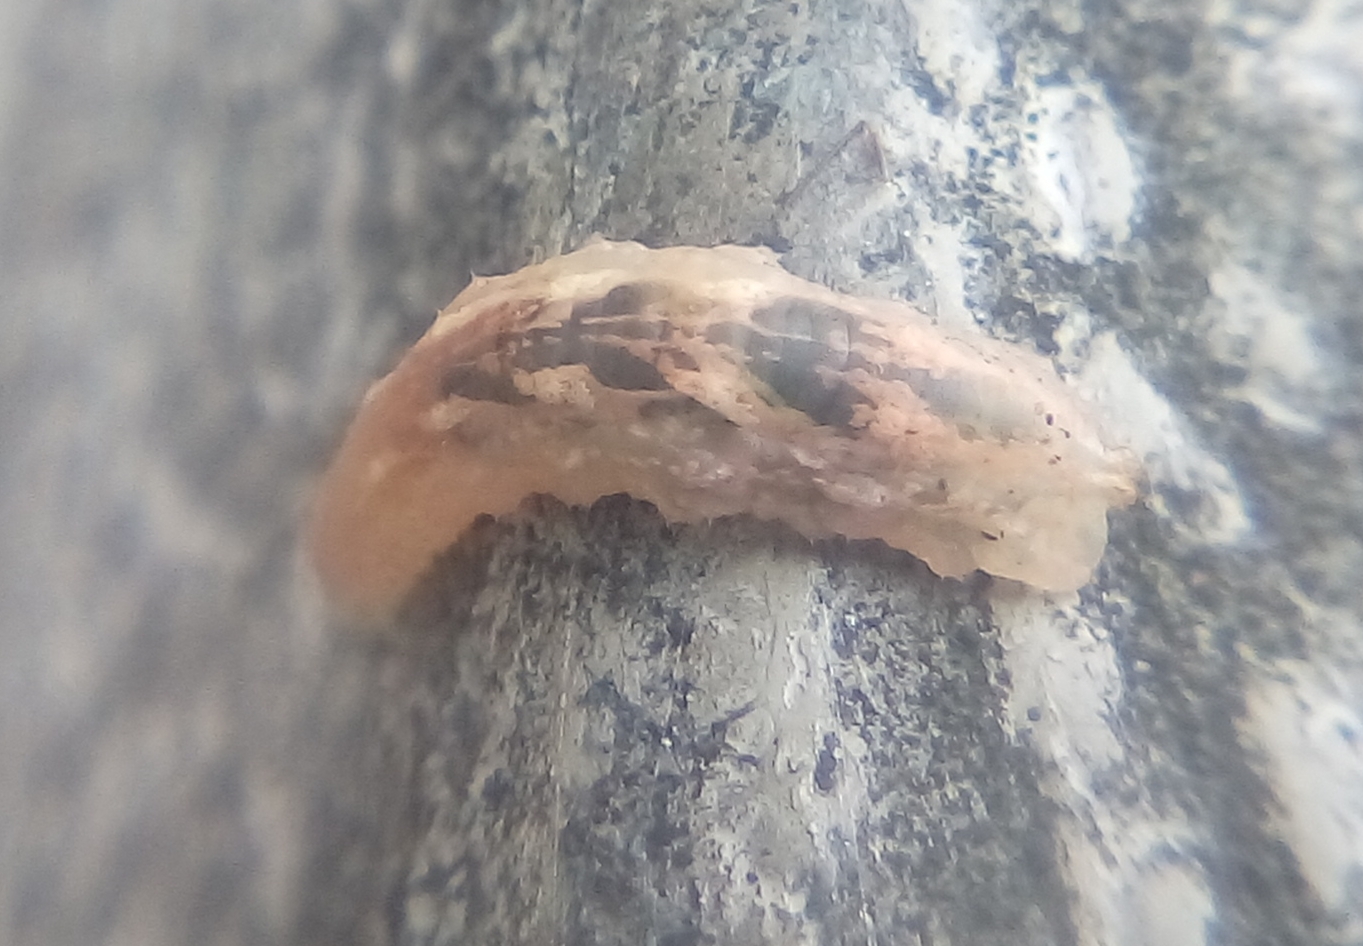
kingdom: Animalia
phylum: Arthropoda
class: Insecta
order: Diptera
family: Syrphidae
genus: Syrphus
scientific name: Syrphus
